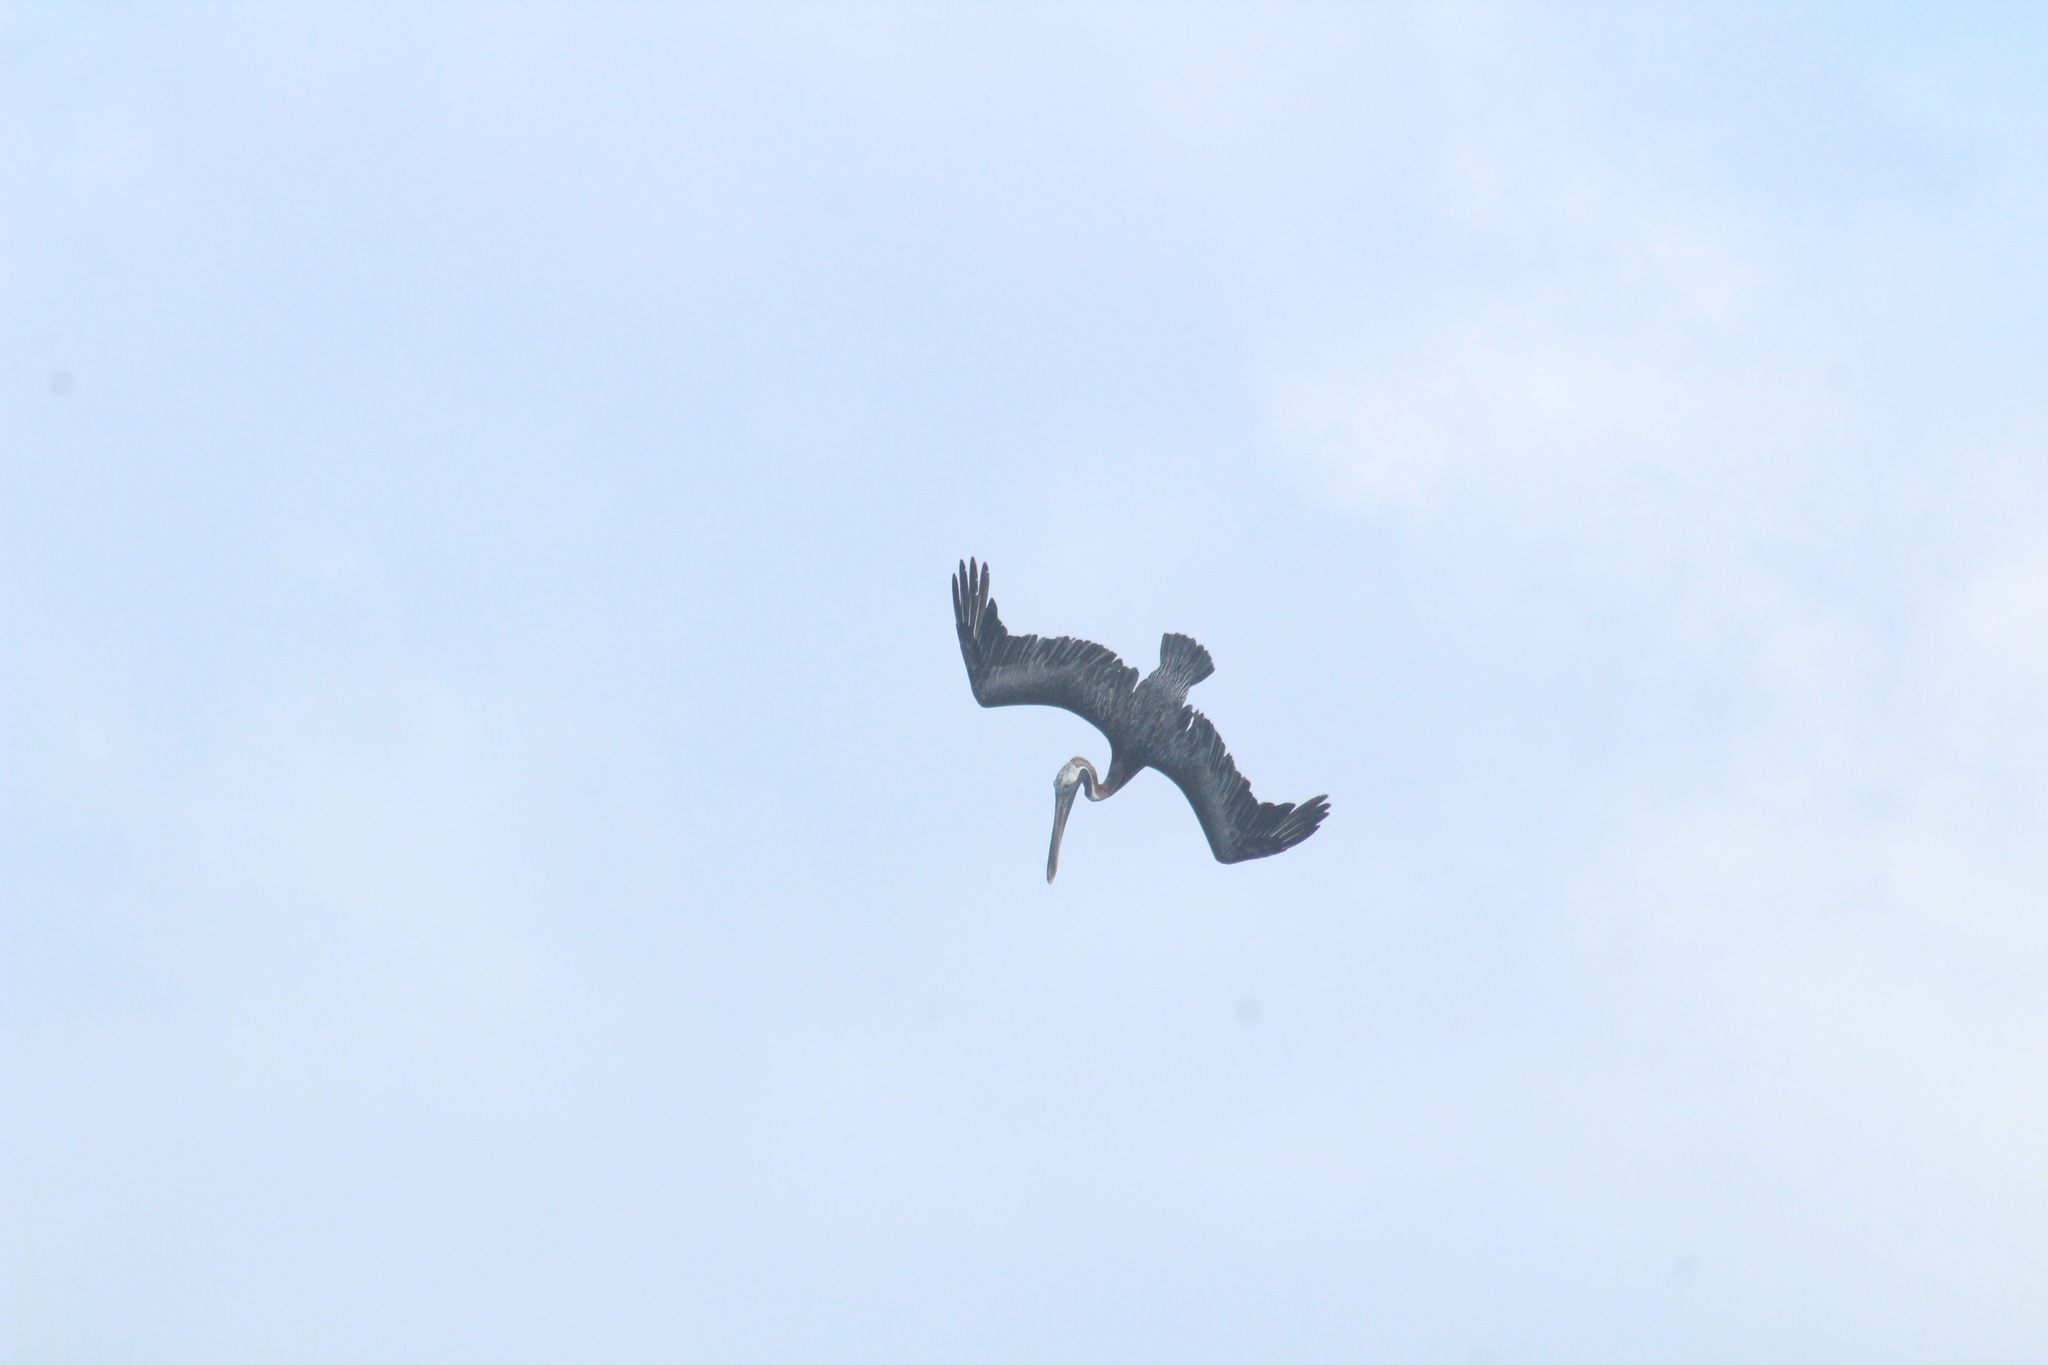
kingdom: Animalia
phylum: Chordata
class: Aves
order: Pelecaniformes
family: Pelecanidae
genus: Pelecanus
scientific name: Pelecanus occidentalis
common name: Brown pelican
